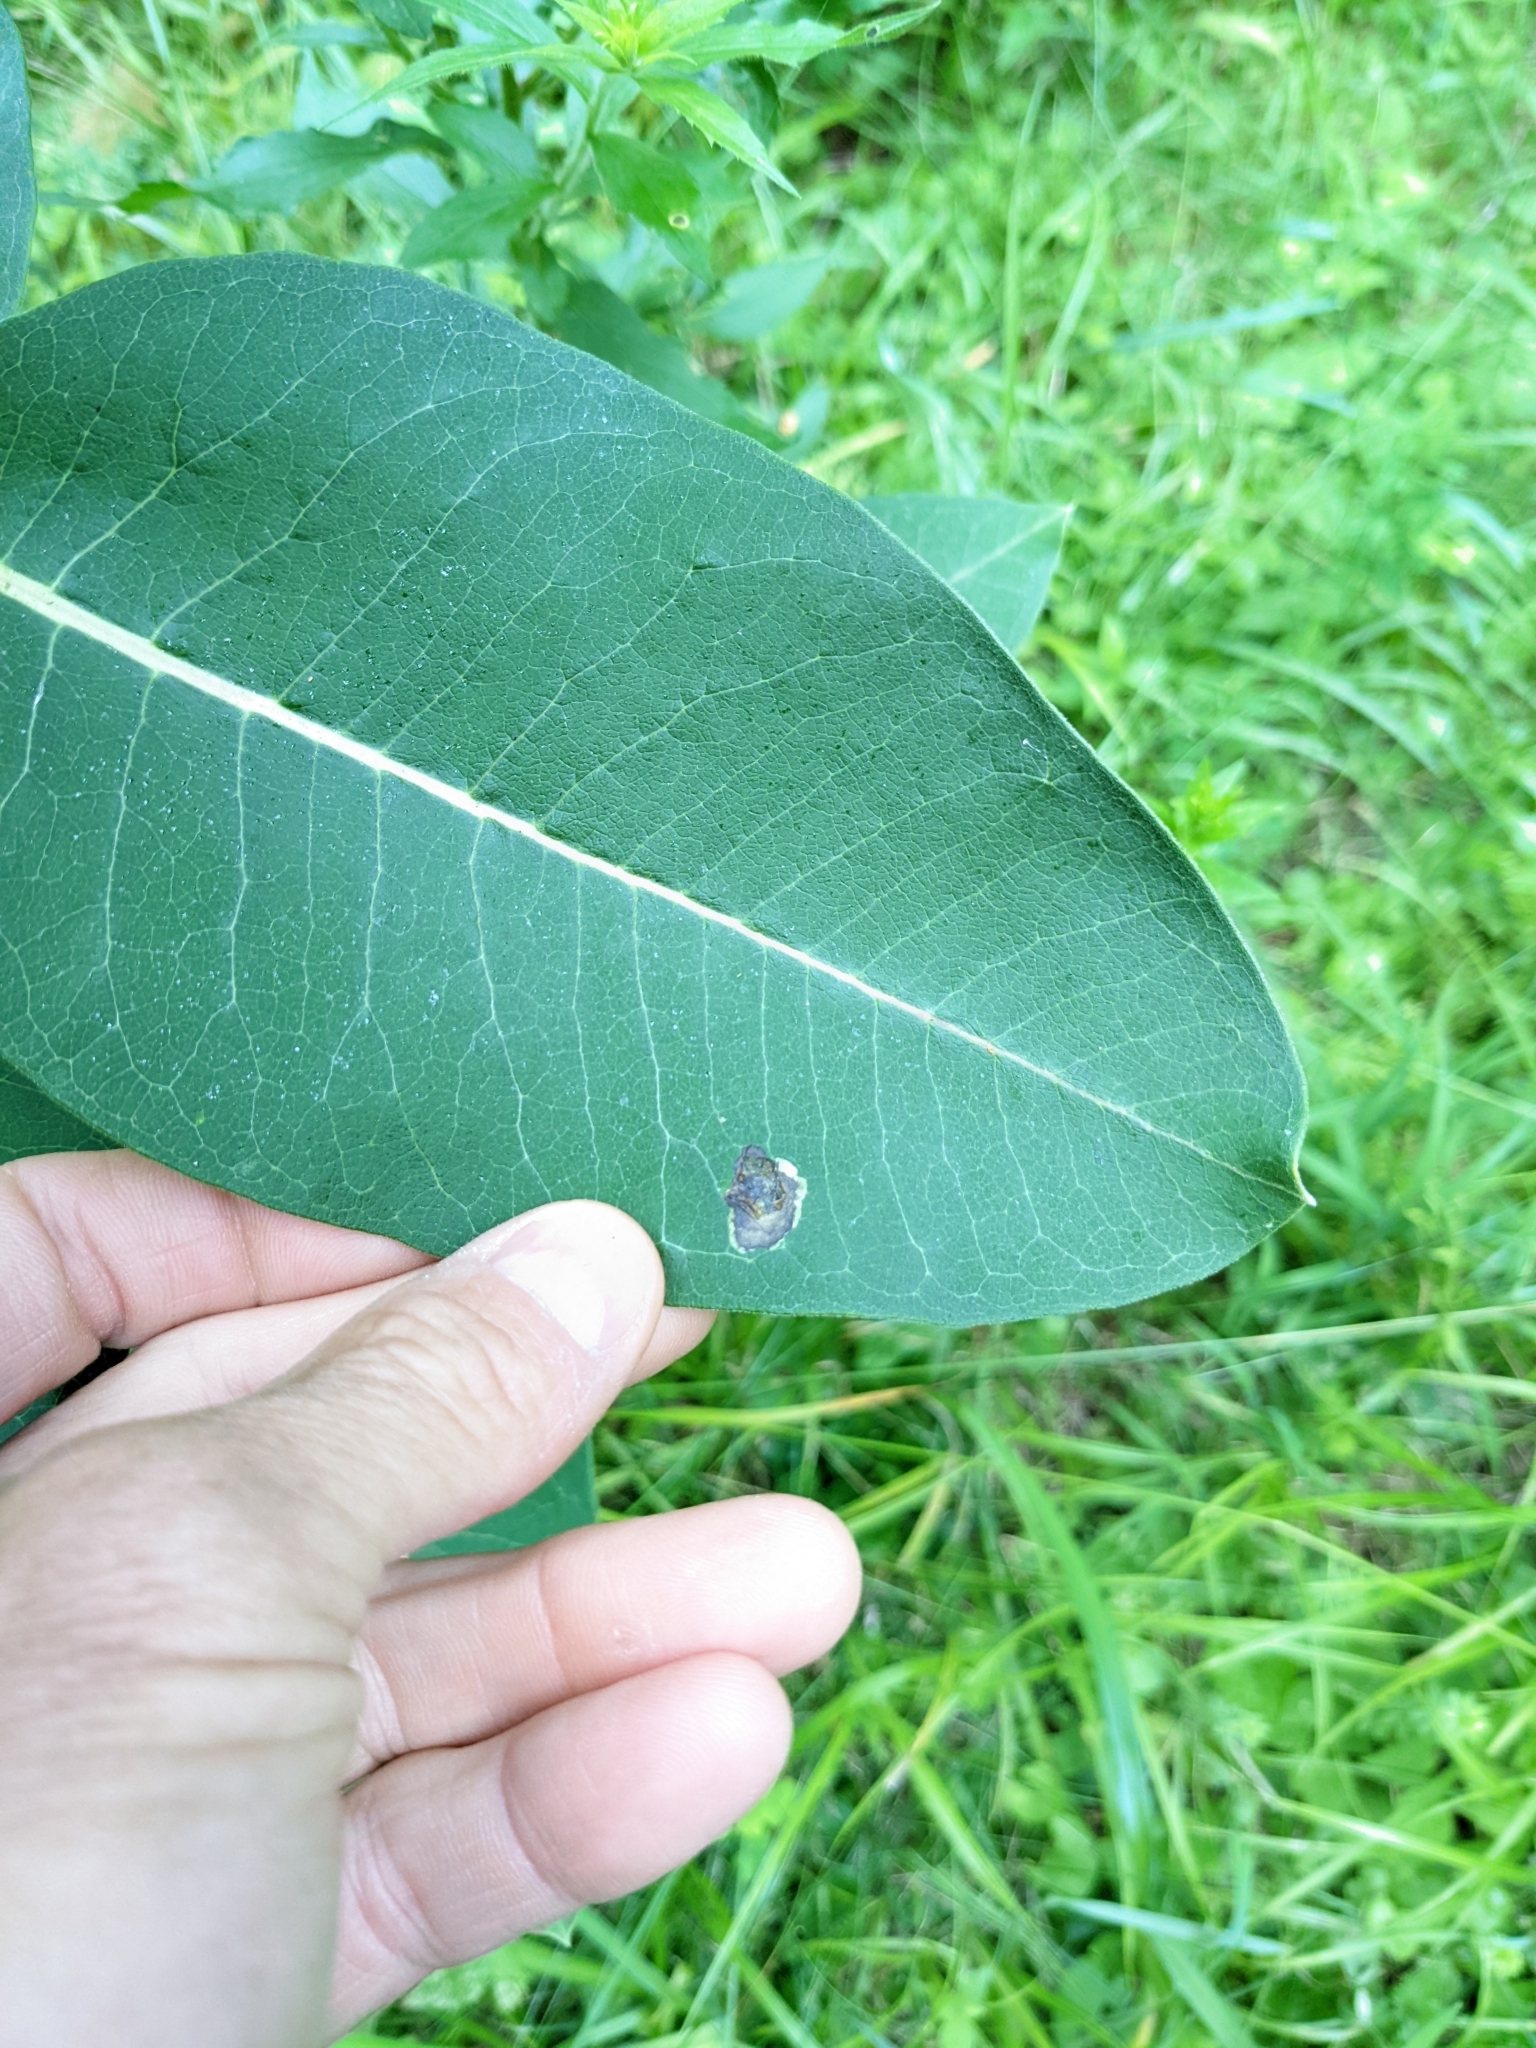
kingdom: Animalia
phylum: Arthropoda
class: Insecta
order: Diptera
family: Agromyzidae
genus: Liriomyza
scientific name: Liriomyza asclepiadis
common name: Milkweed leaf-miner fly
